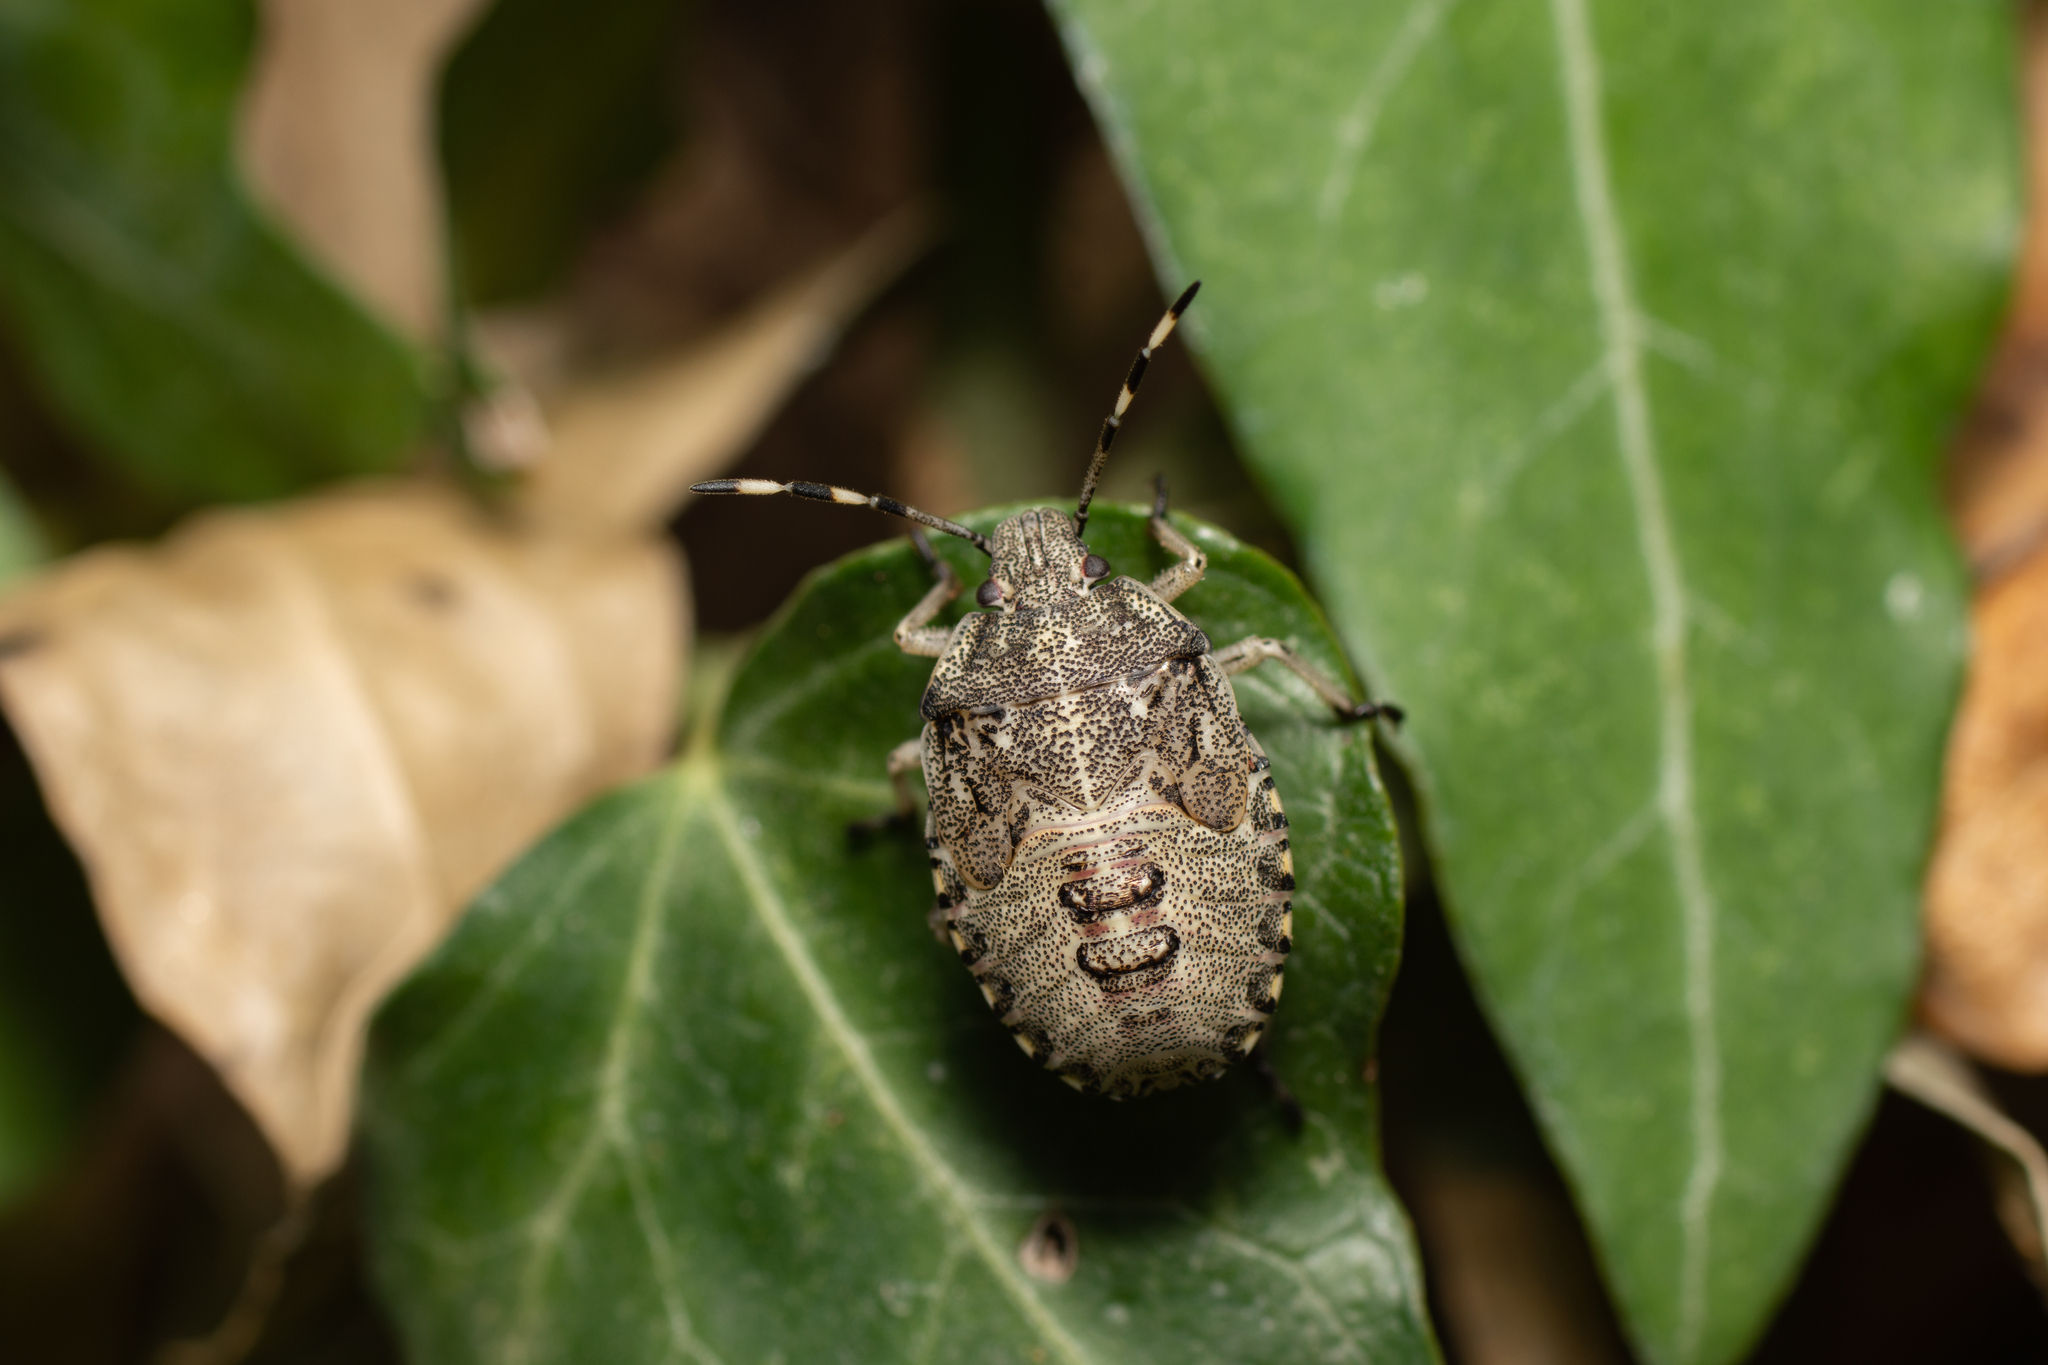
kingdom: Animalia
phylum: Arthropoda
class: Insecta
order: Hemiptera
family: Pentatomidae
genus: Rhaphigaster
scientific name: Rhaphigaster nebulosa
